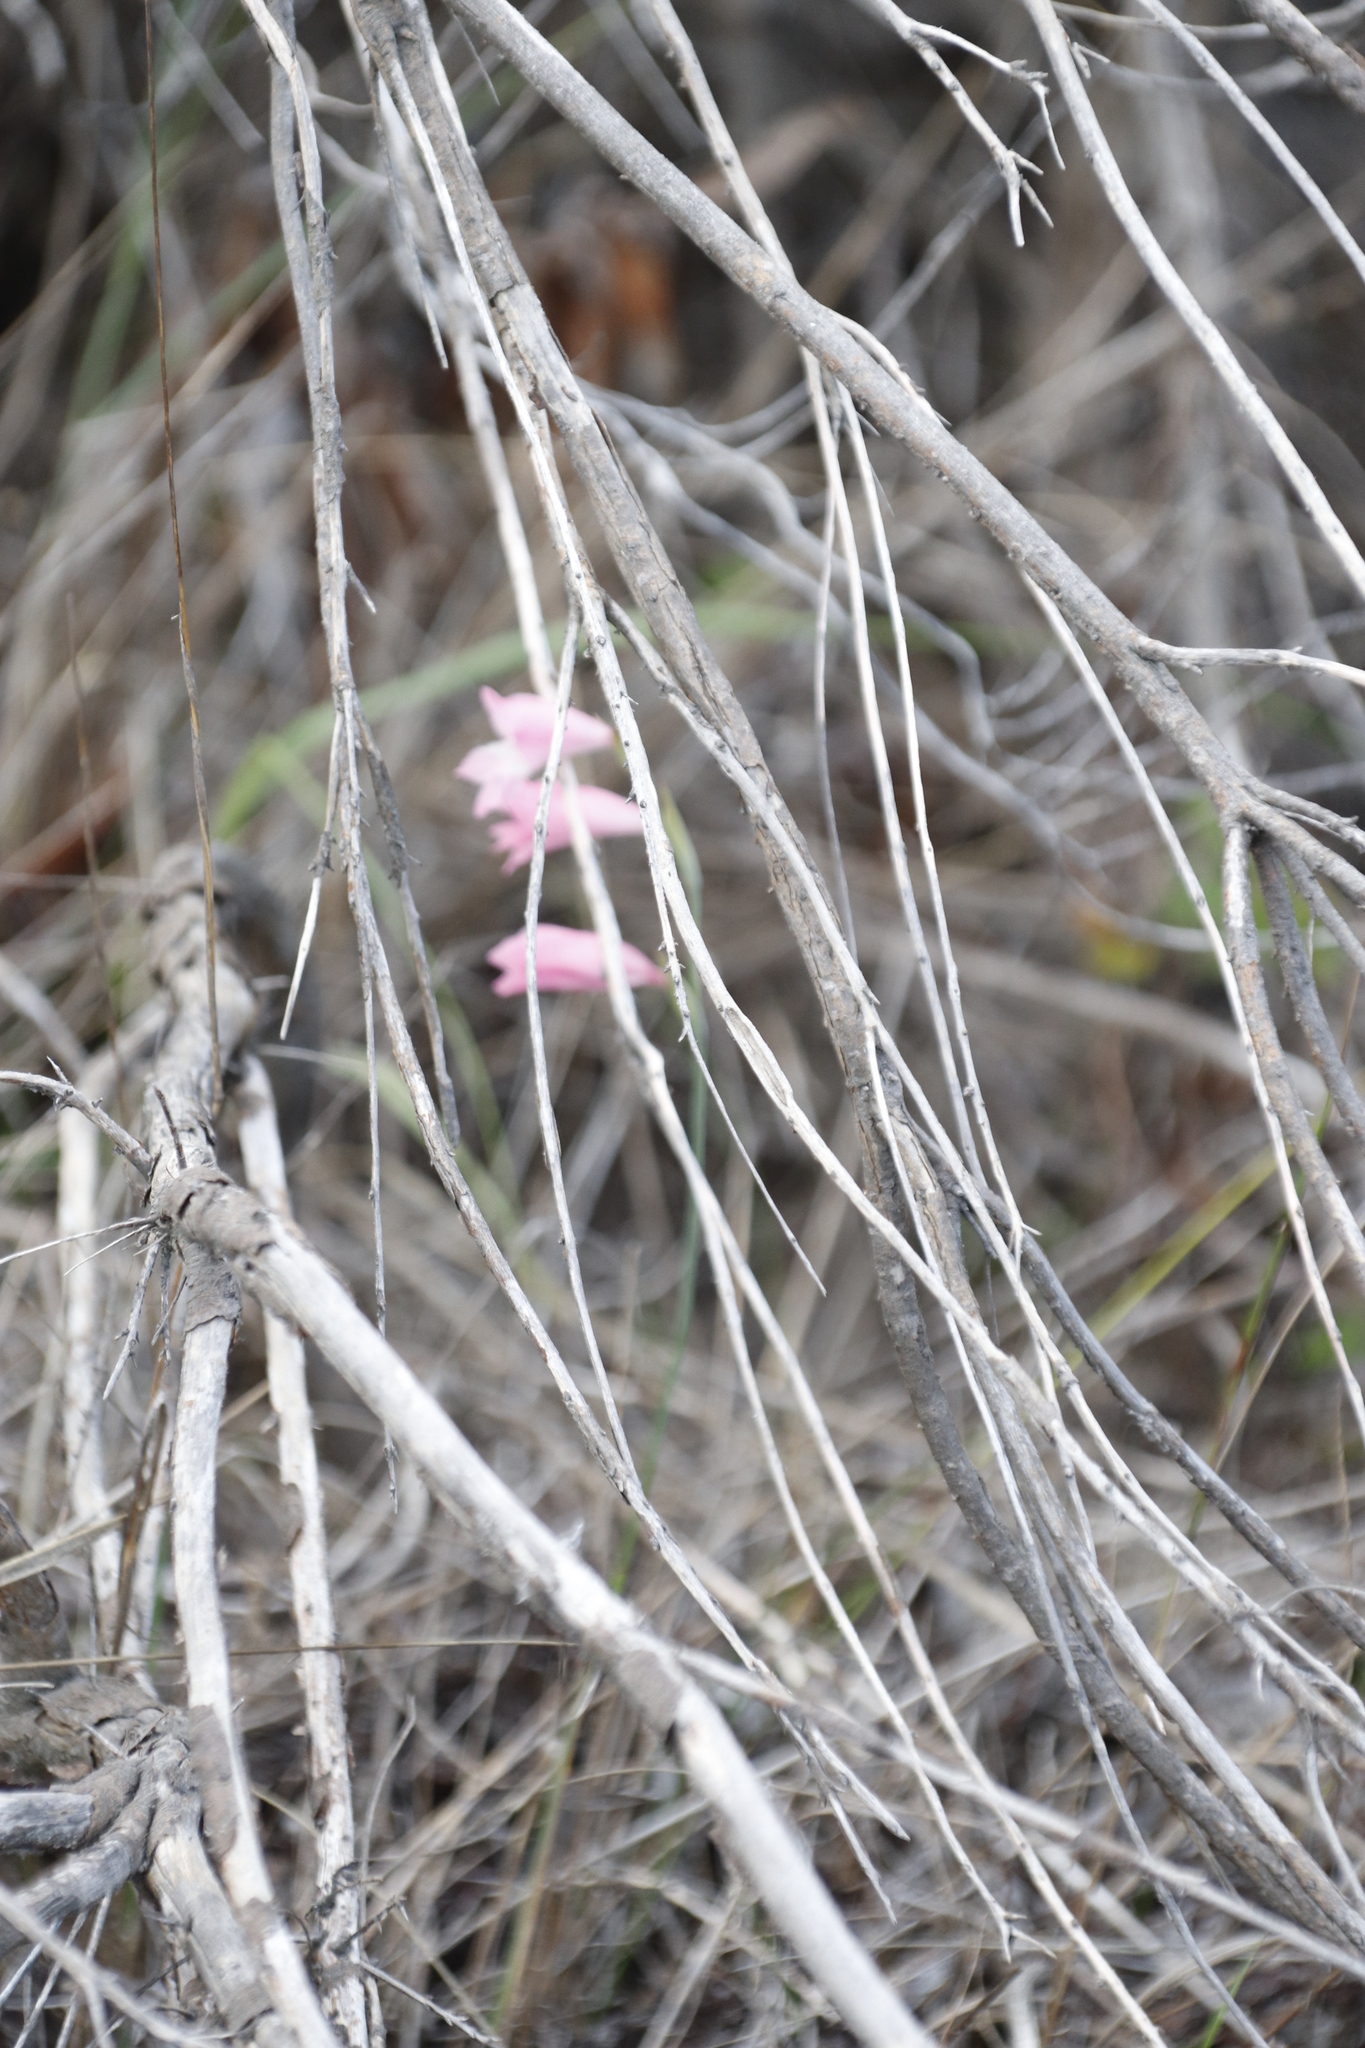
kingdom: Plantae
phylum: Tracheophyta
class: Liliopsida
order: Asparagales
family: Iridaceae
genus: Gladiolus
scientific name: Gladiolus brevifolius
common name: March pypie
